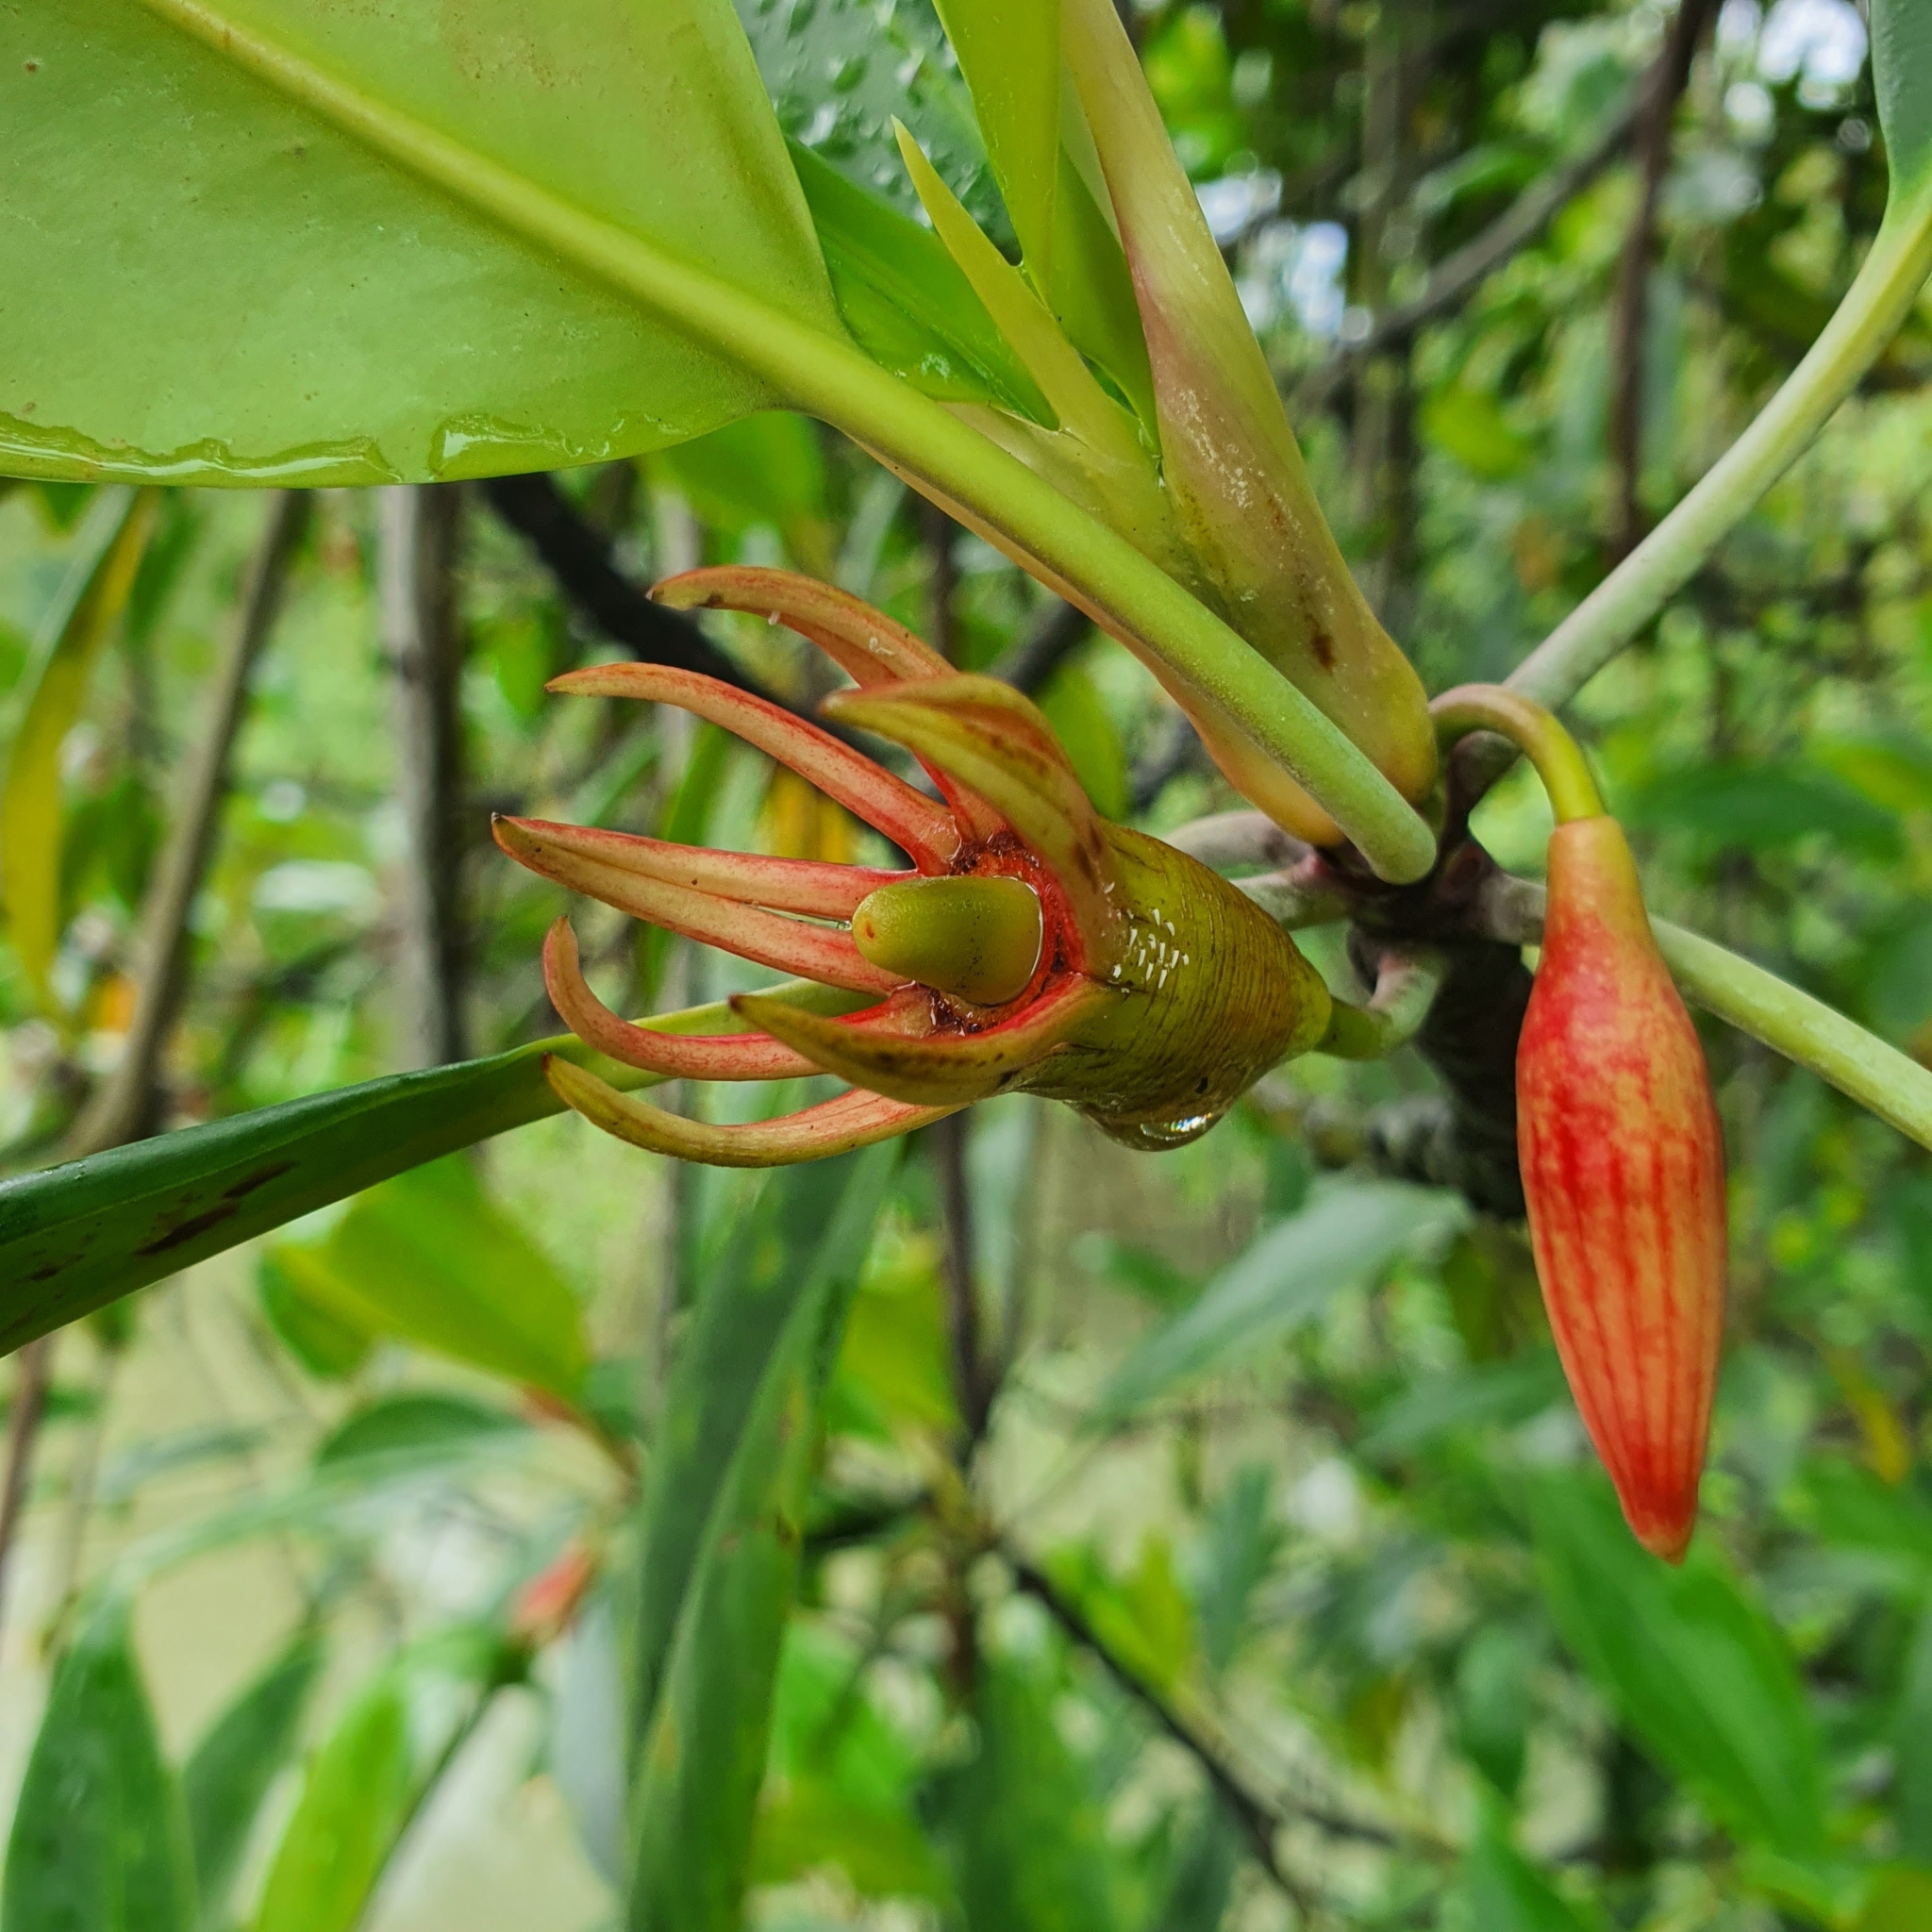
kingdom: Plantae
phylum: Tracheophyta
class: Magnoliopsida
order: Malpighiales
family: Rhizophoraceae
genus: Bruguiera
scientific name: Bruguiera gymnorhiza
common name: Oriental mangrove
